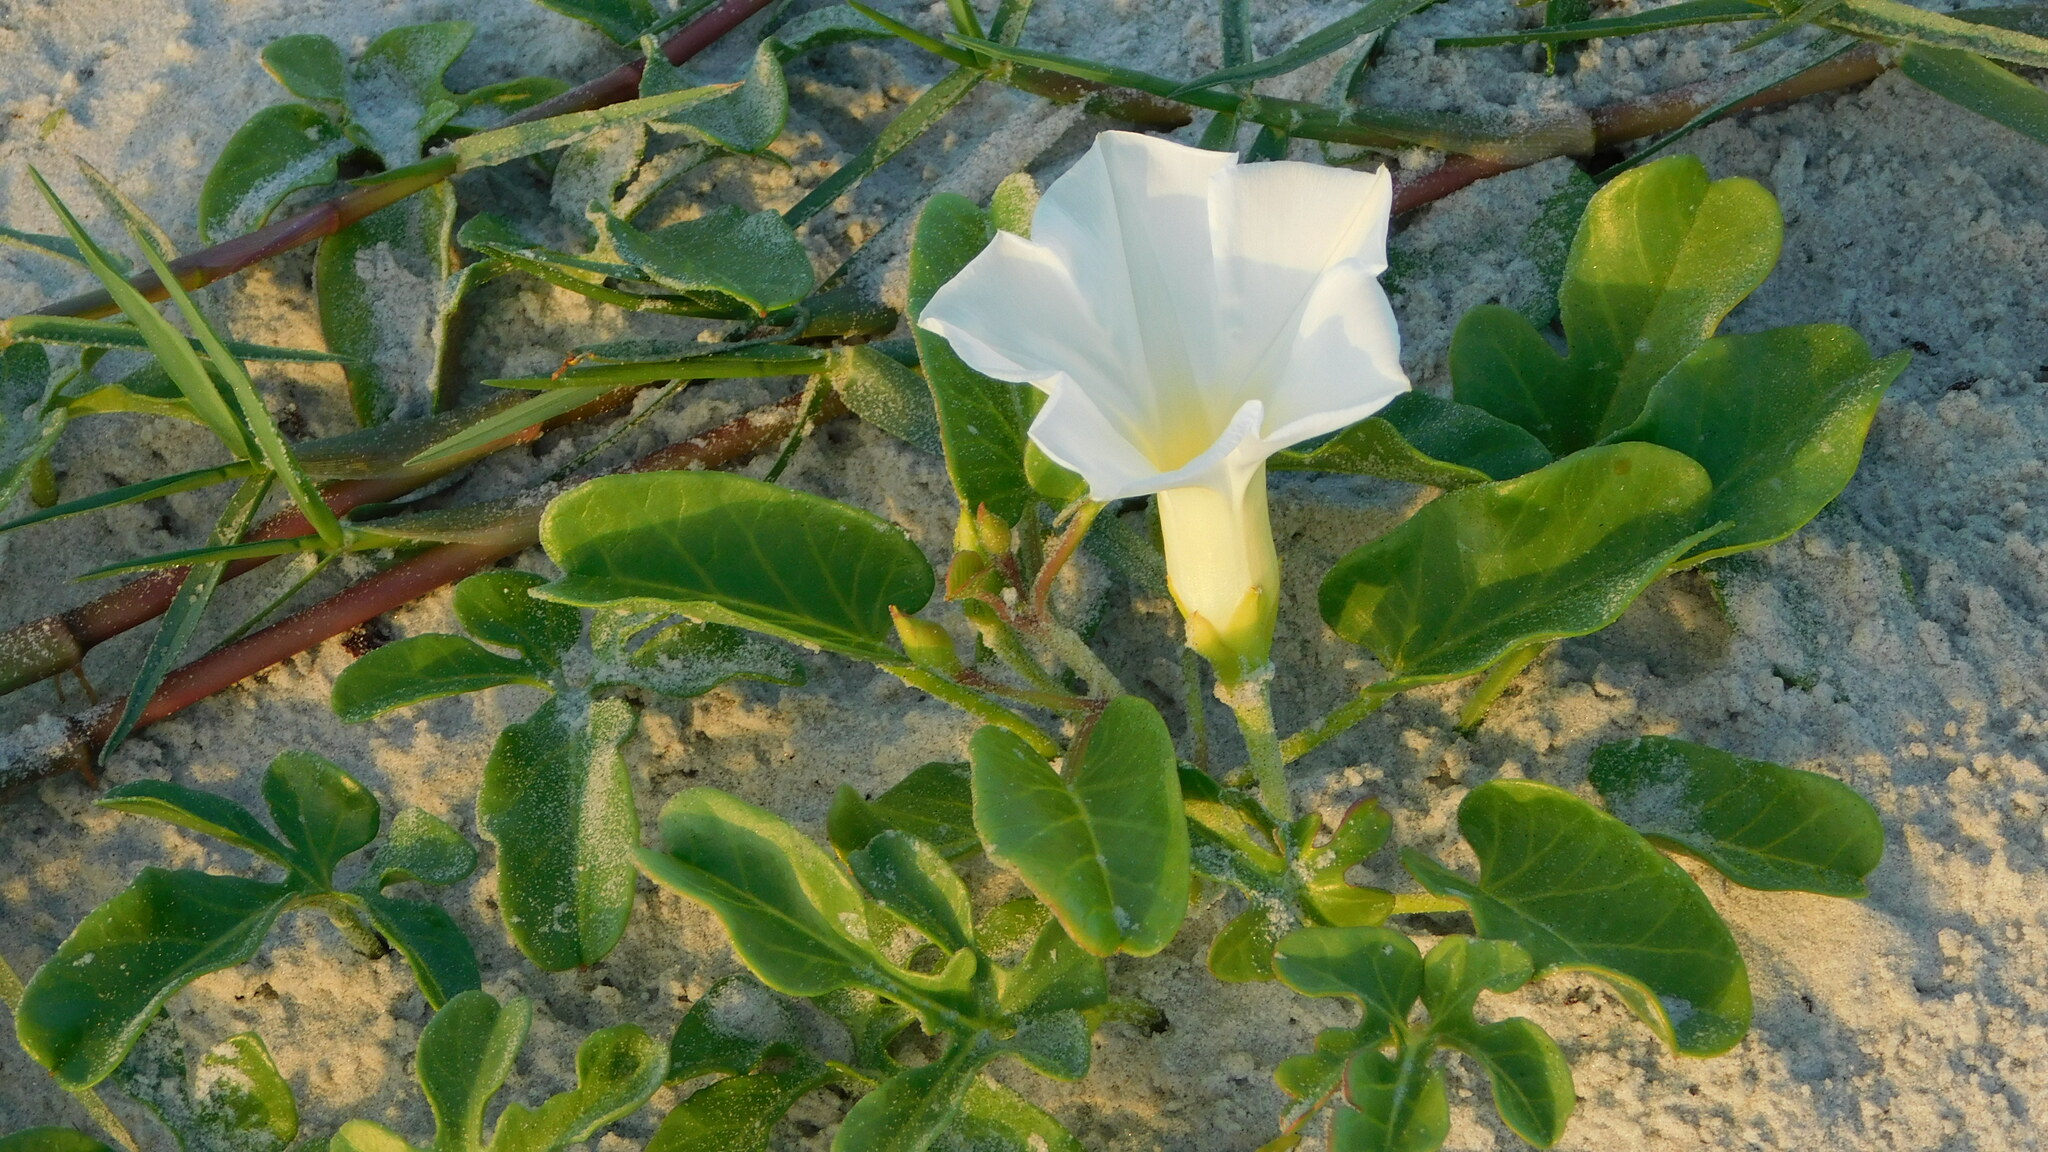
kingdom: Plantae
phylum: Tracheophyta
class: Magnoliopsida
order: Solanales
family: Convolvulaceae
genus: Ipomoea
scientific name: Ipomoea imperati
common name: Fiddle-leaf morning-glory
